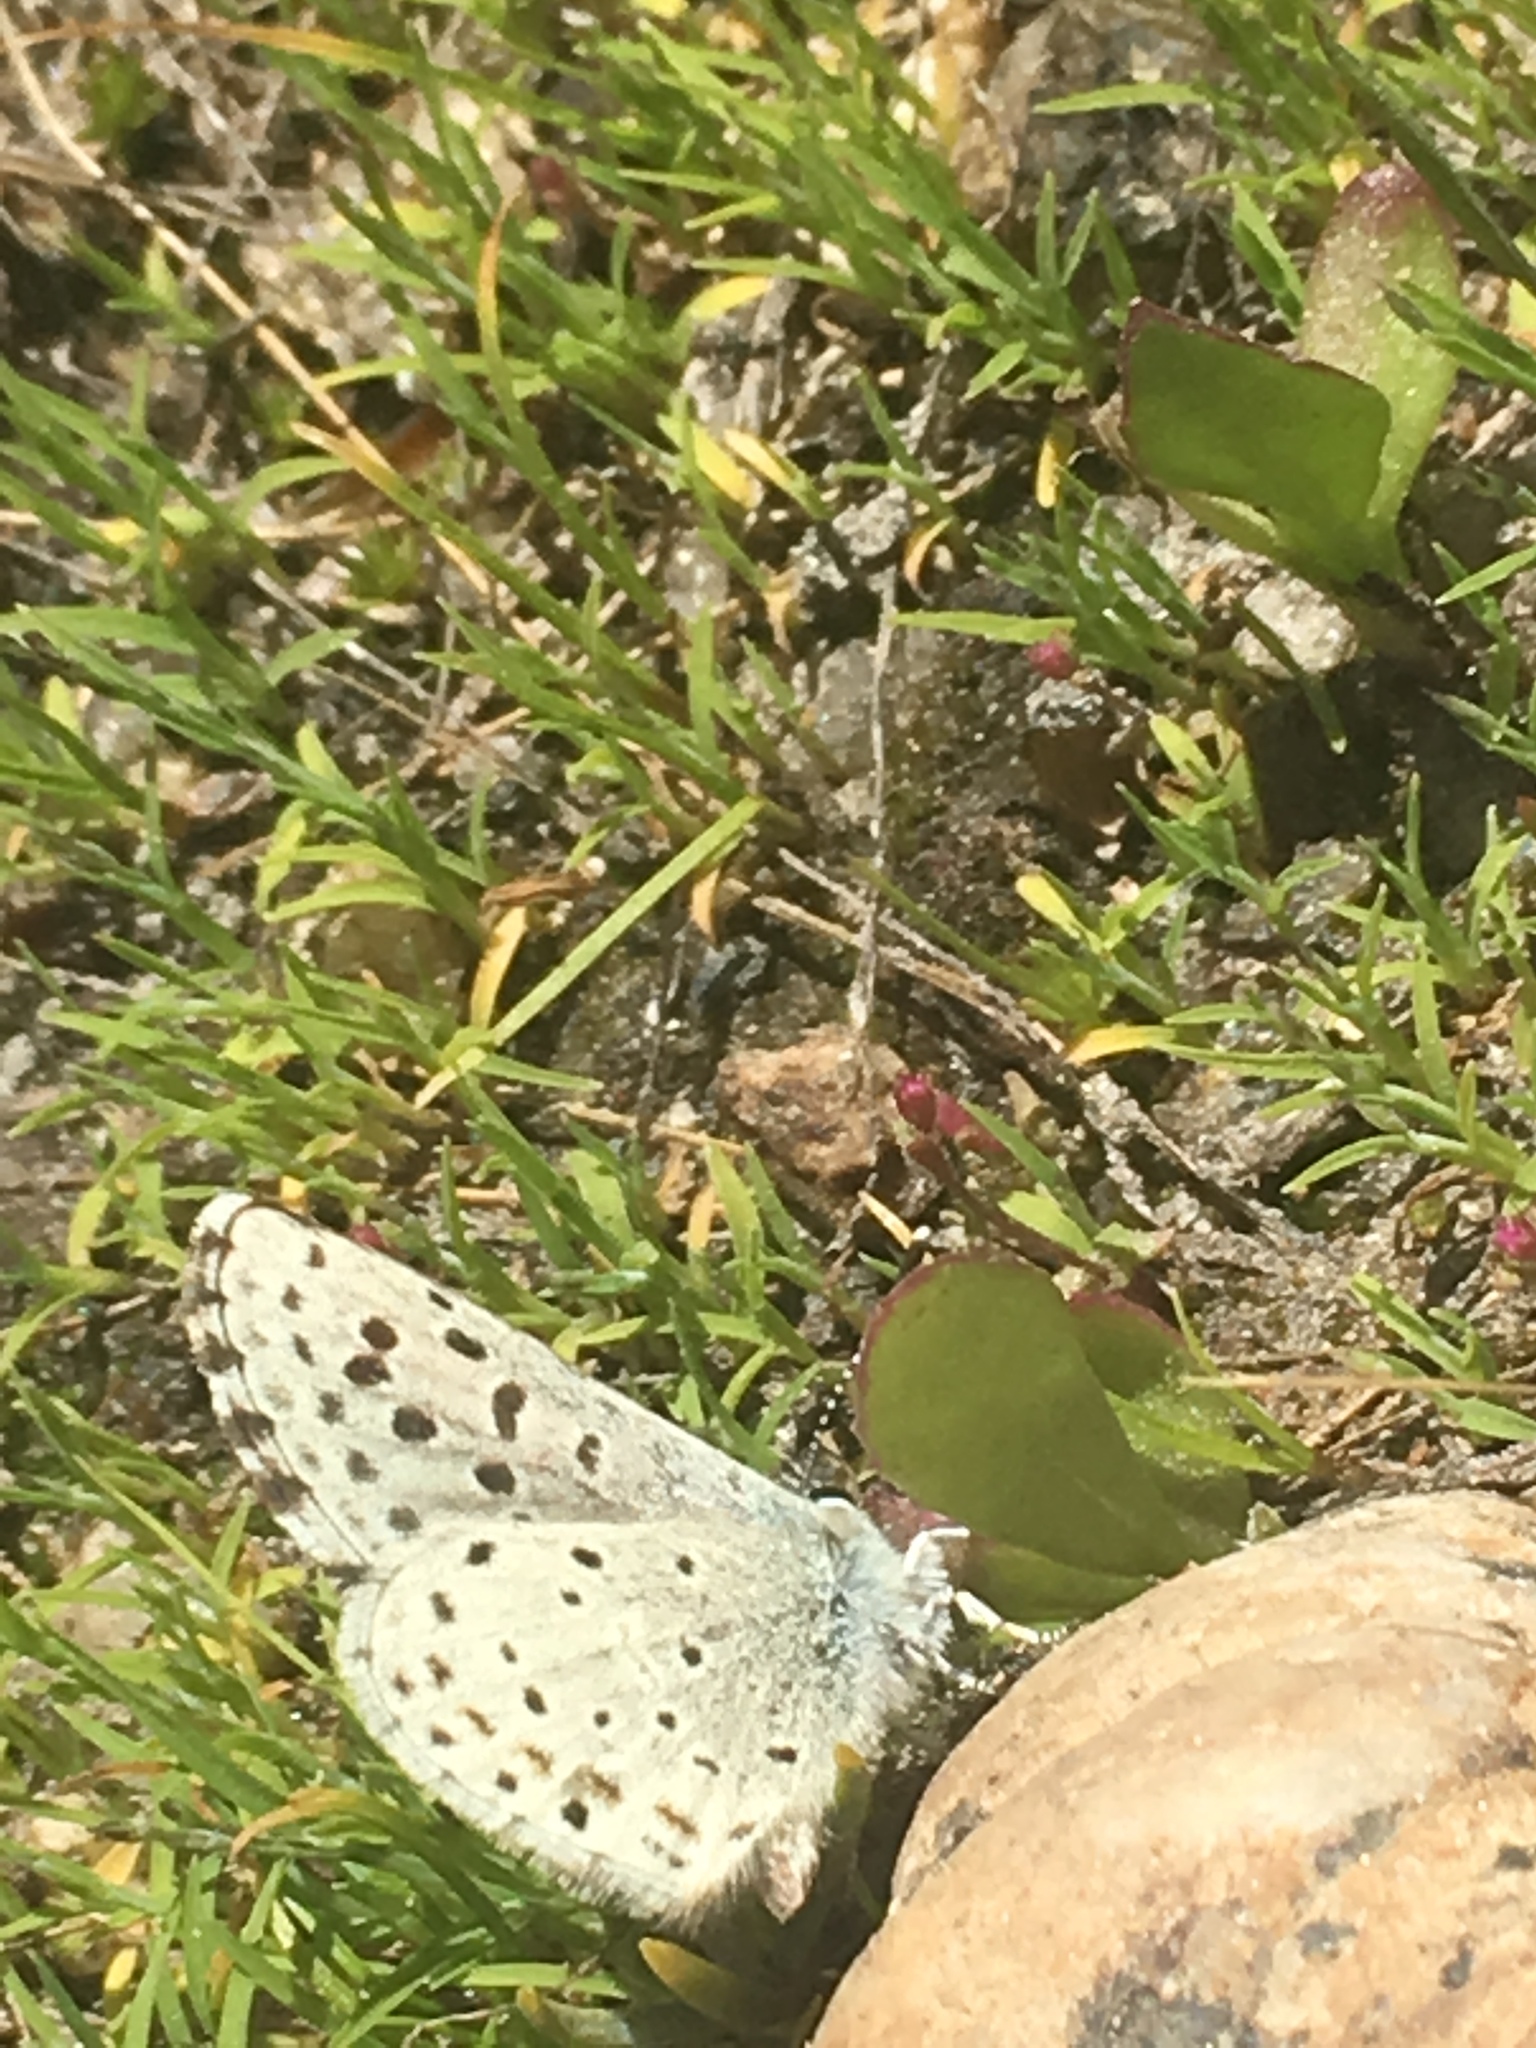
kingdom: Animalia
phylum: Arthropoda
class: Insecta
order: Lepidoptera
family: Lycaenidae
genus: Icaricia
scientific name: Icaricia saepiolus
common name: Greenish blue
